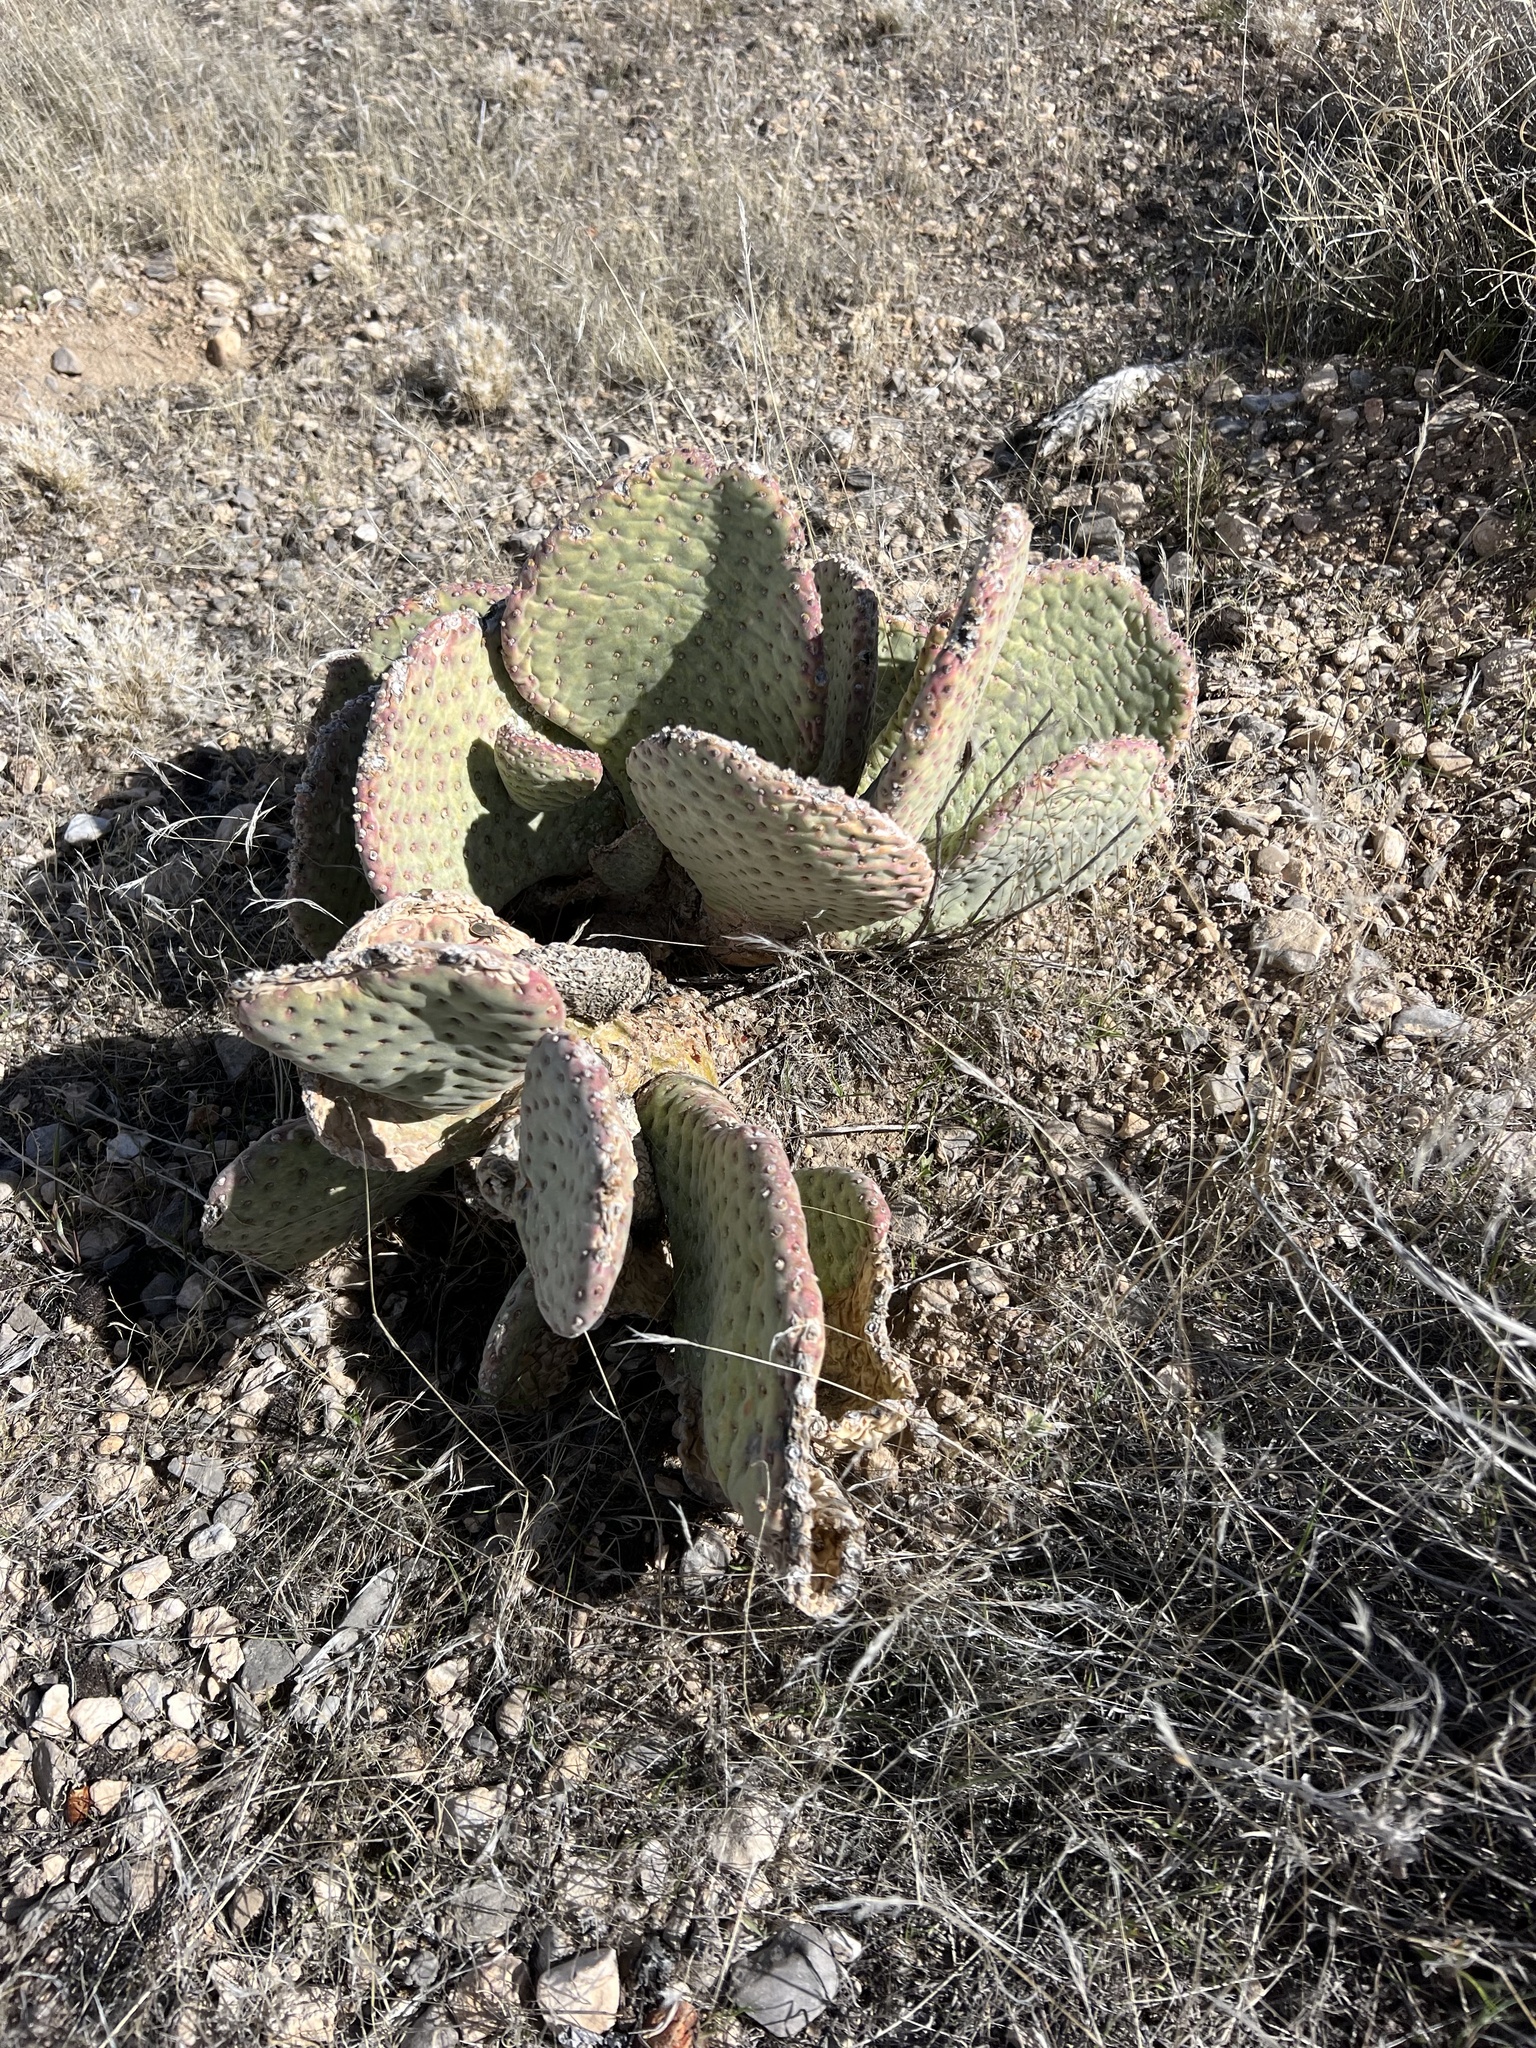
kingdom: Plantae
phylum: Tracheophyta
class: Magnoliopsida
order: Caryophyllales
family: Cactaceae
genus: Opuntia
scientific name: Opuntia basilaris
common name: Beavertail prickly-pear
